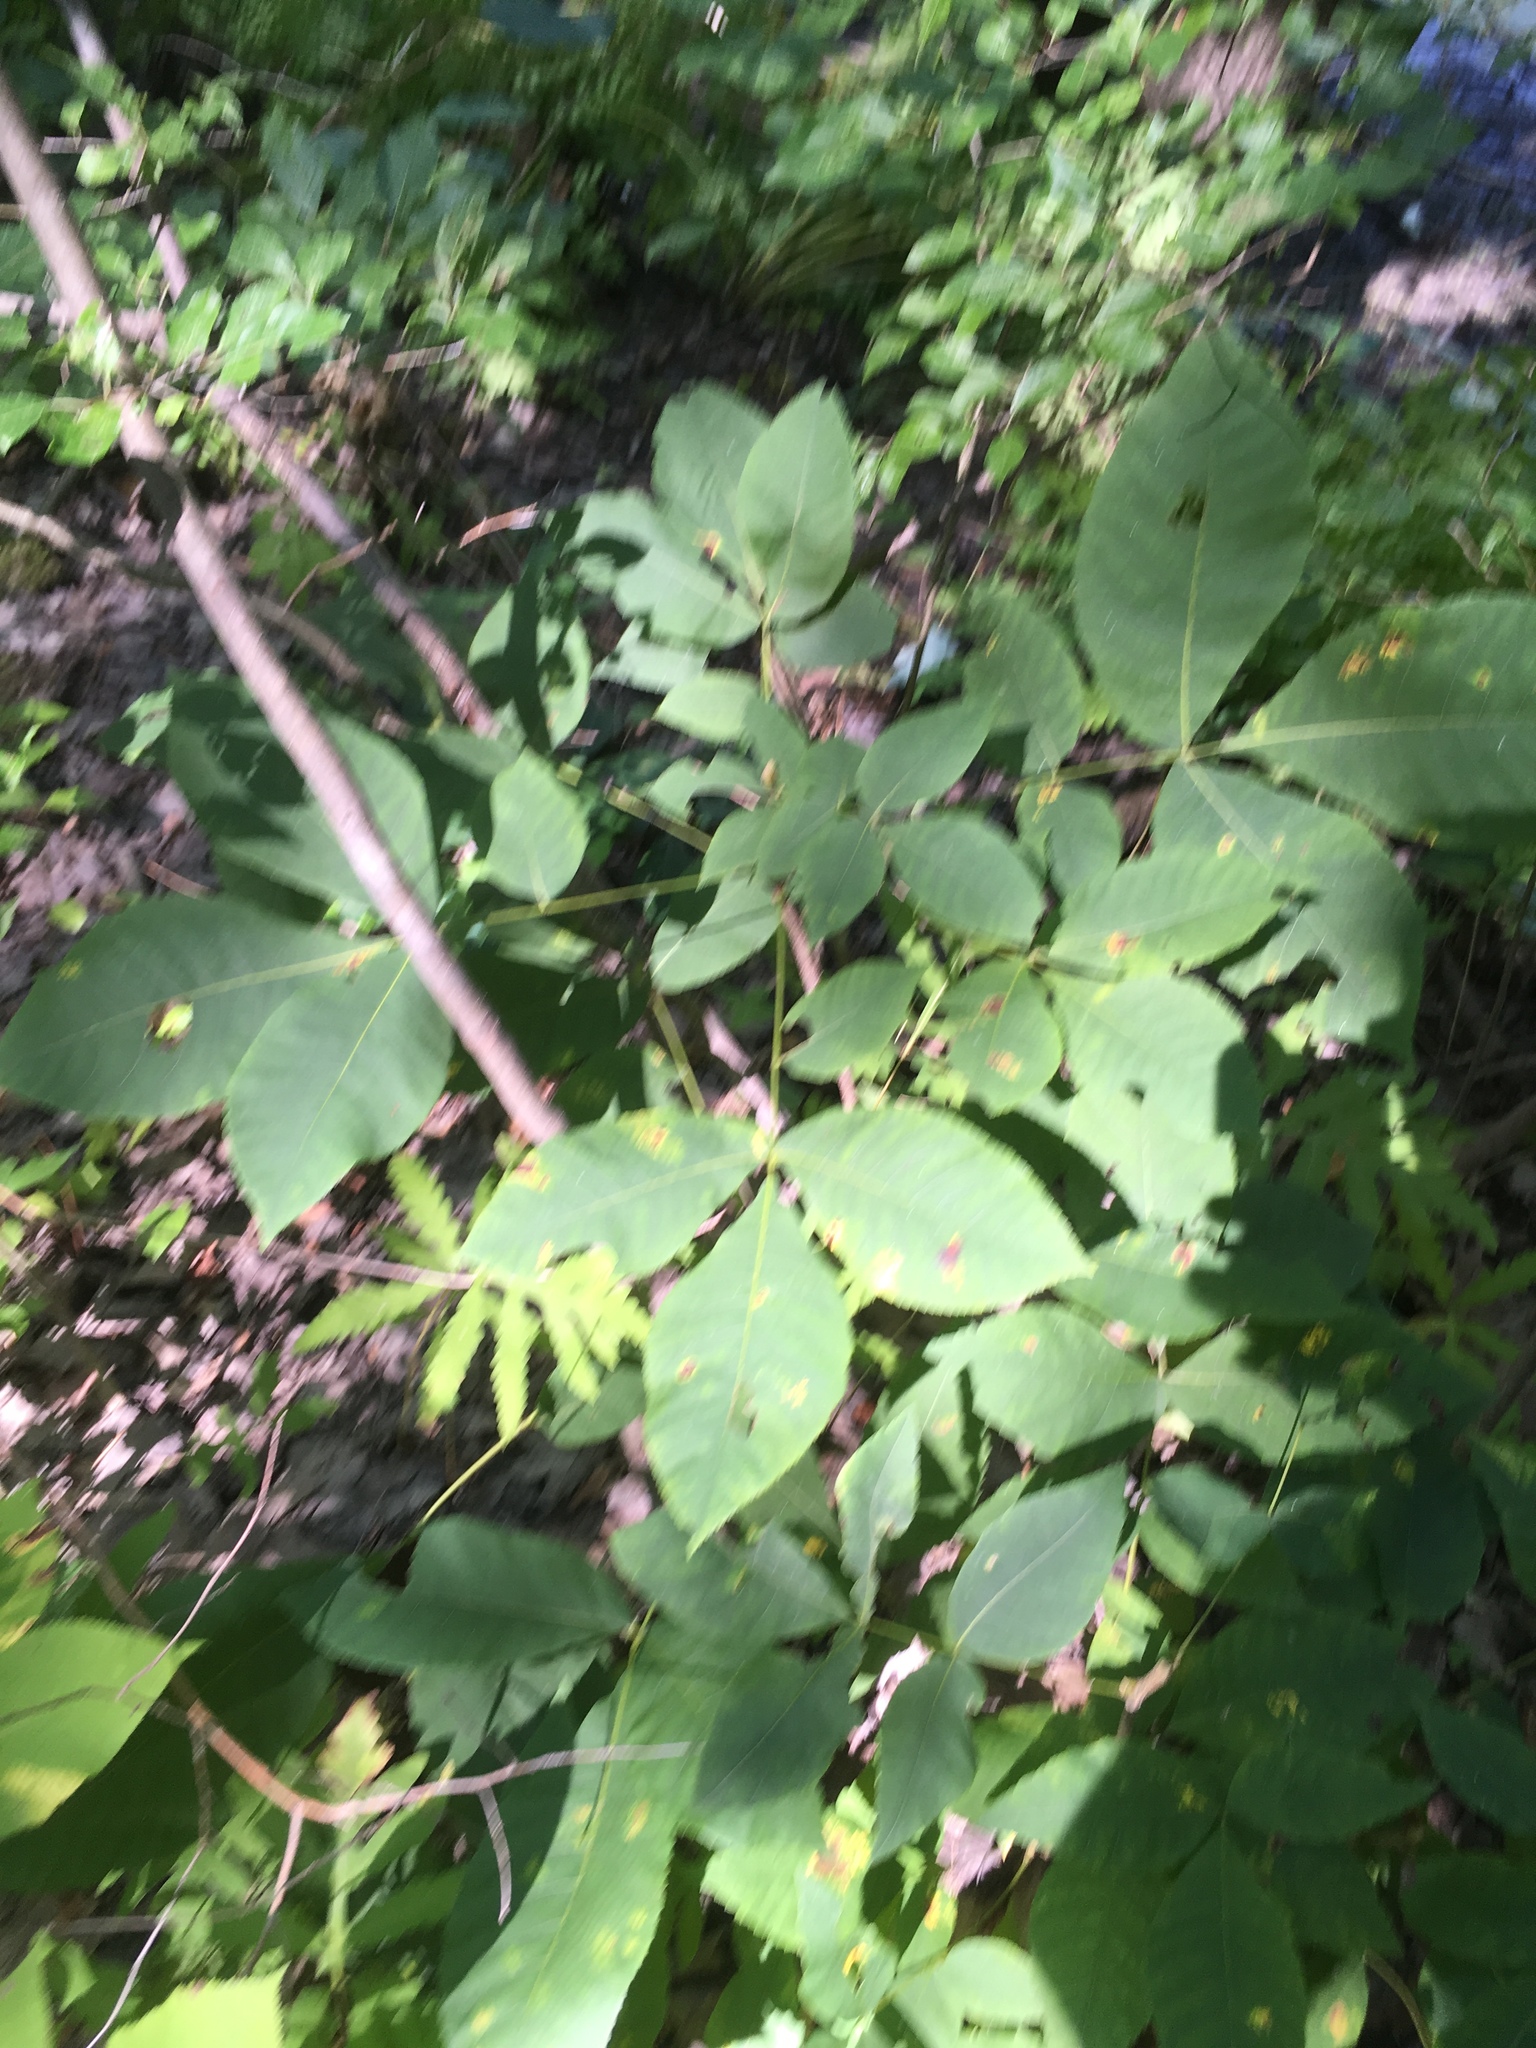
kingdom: Plantae
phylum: Tracheophyta
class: Magnoliopsida
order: Fagales
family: Juglandaceae
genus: Carya
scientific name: Carya ovata
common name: Shagbark hickory
